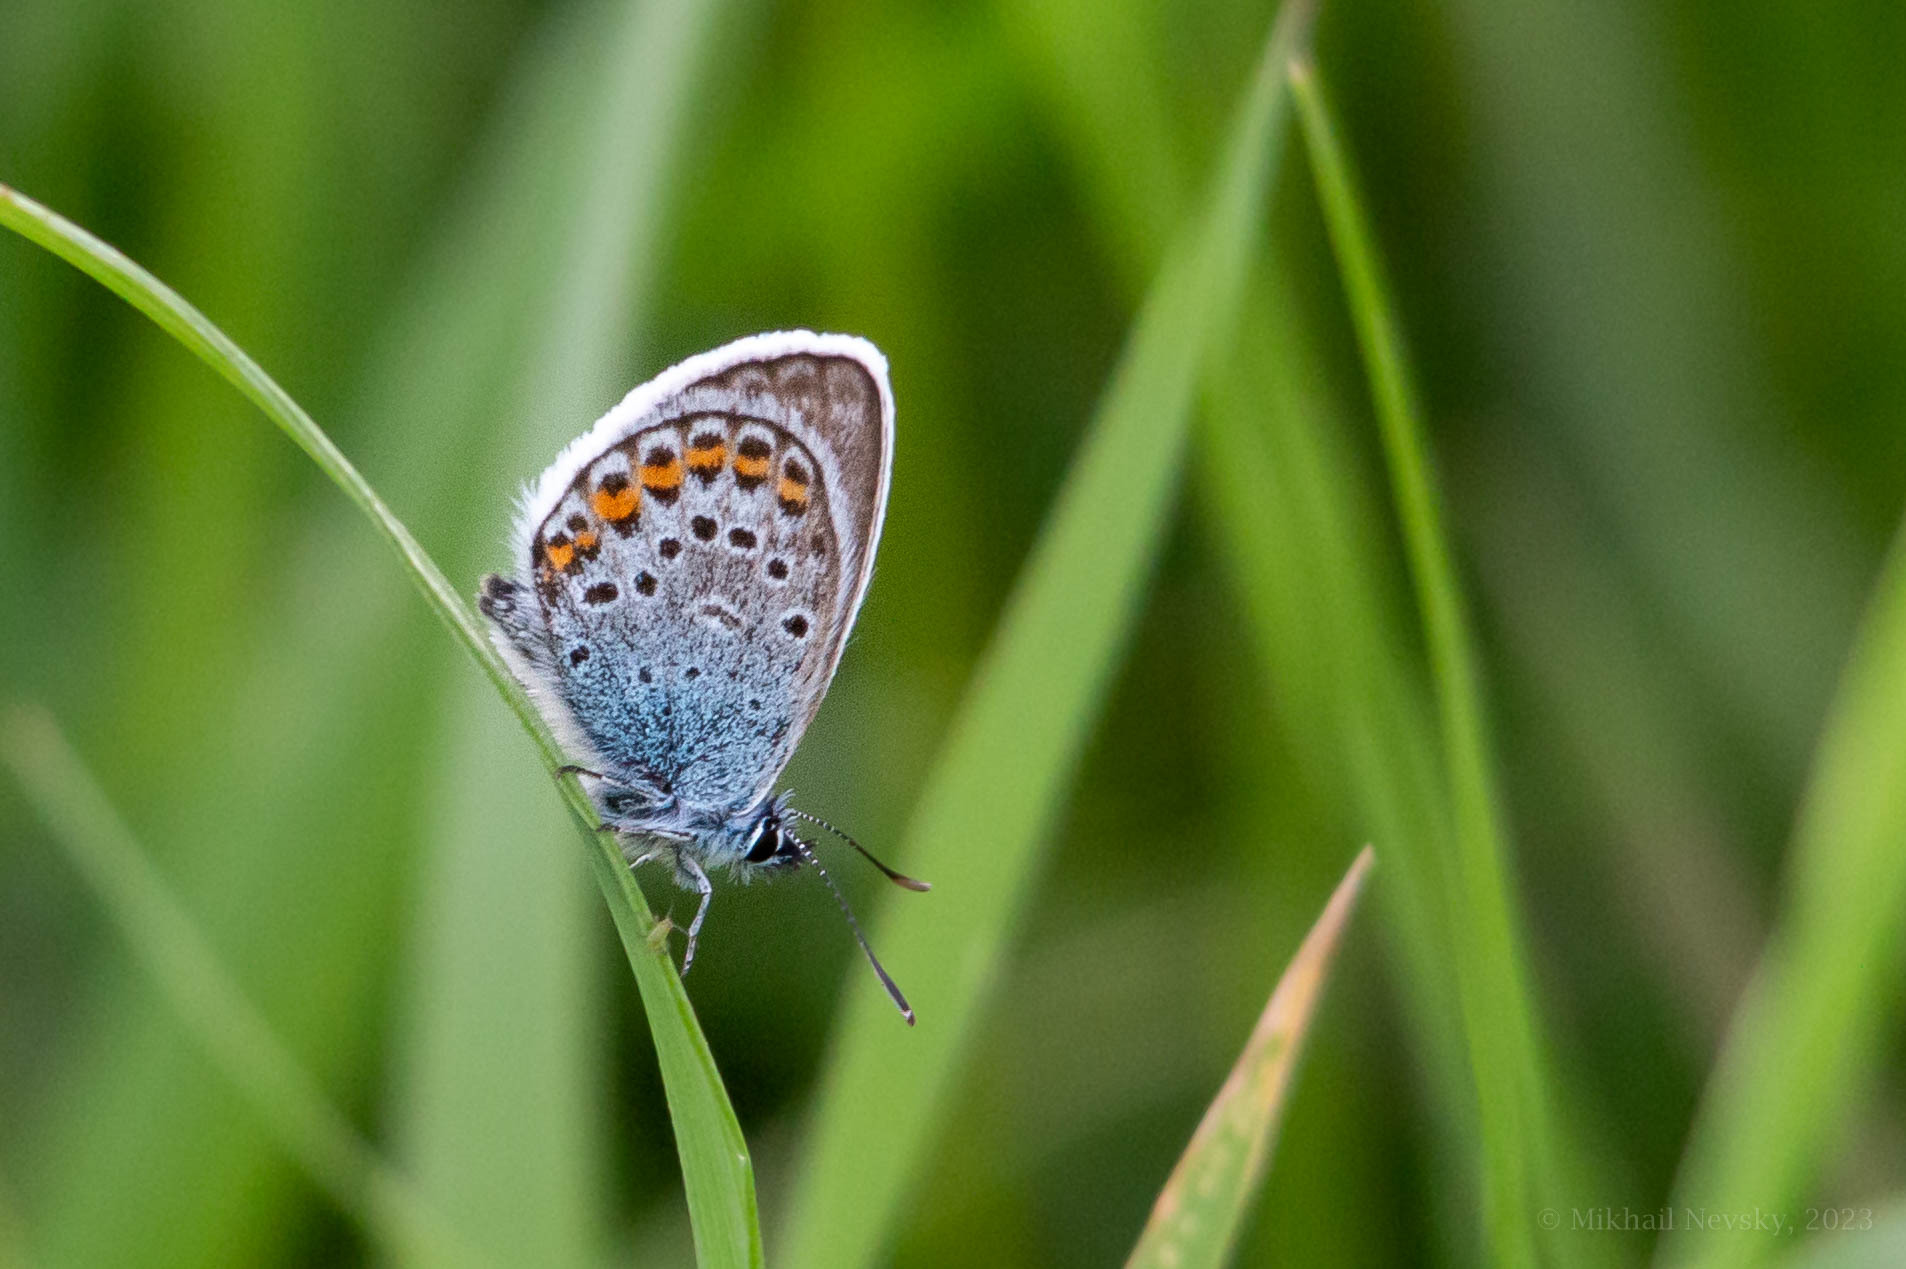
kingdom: Animalia
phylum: Arthropoda
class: Insecta
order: Lepidoptera
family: Lycaenidae
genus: Plebejus
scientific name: Plebejus argus
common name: Silver-studded blue
